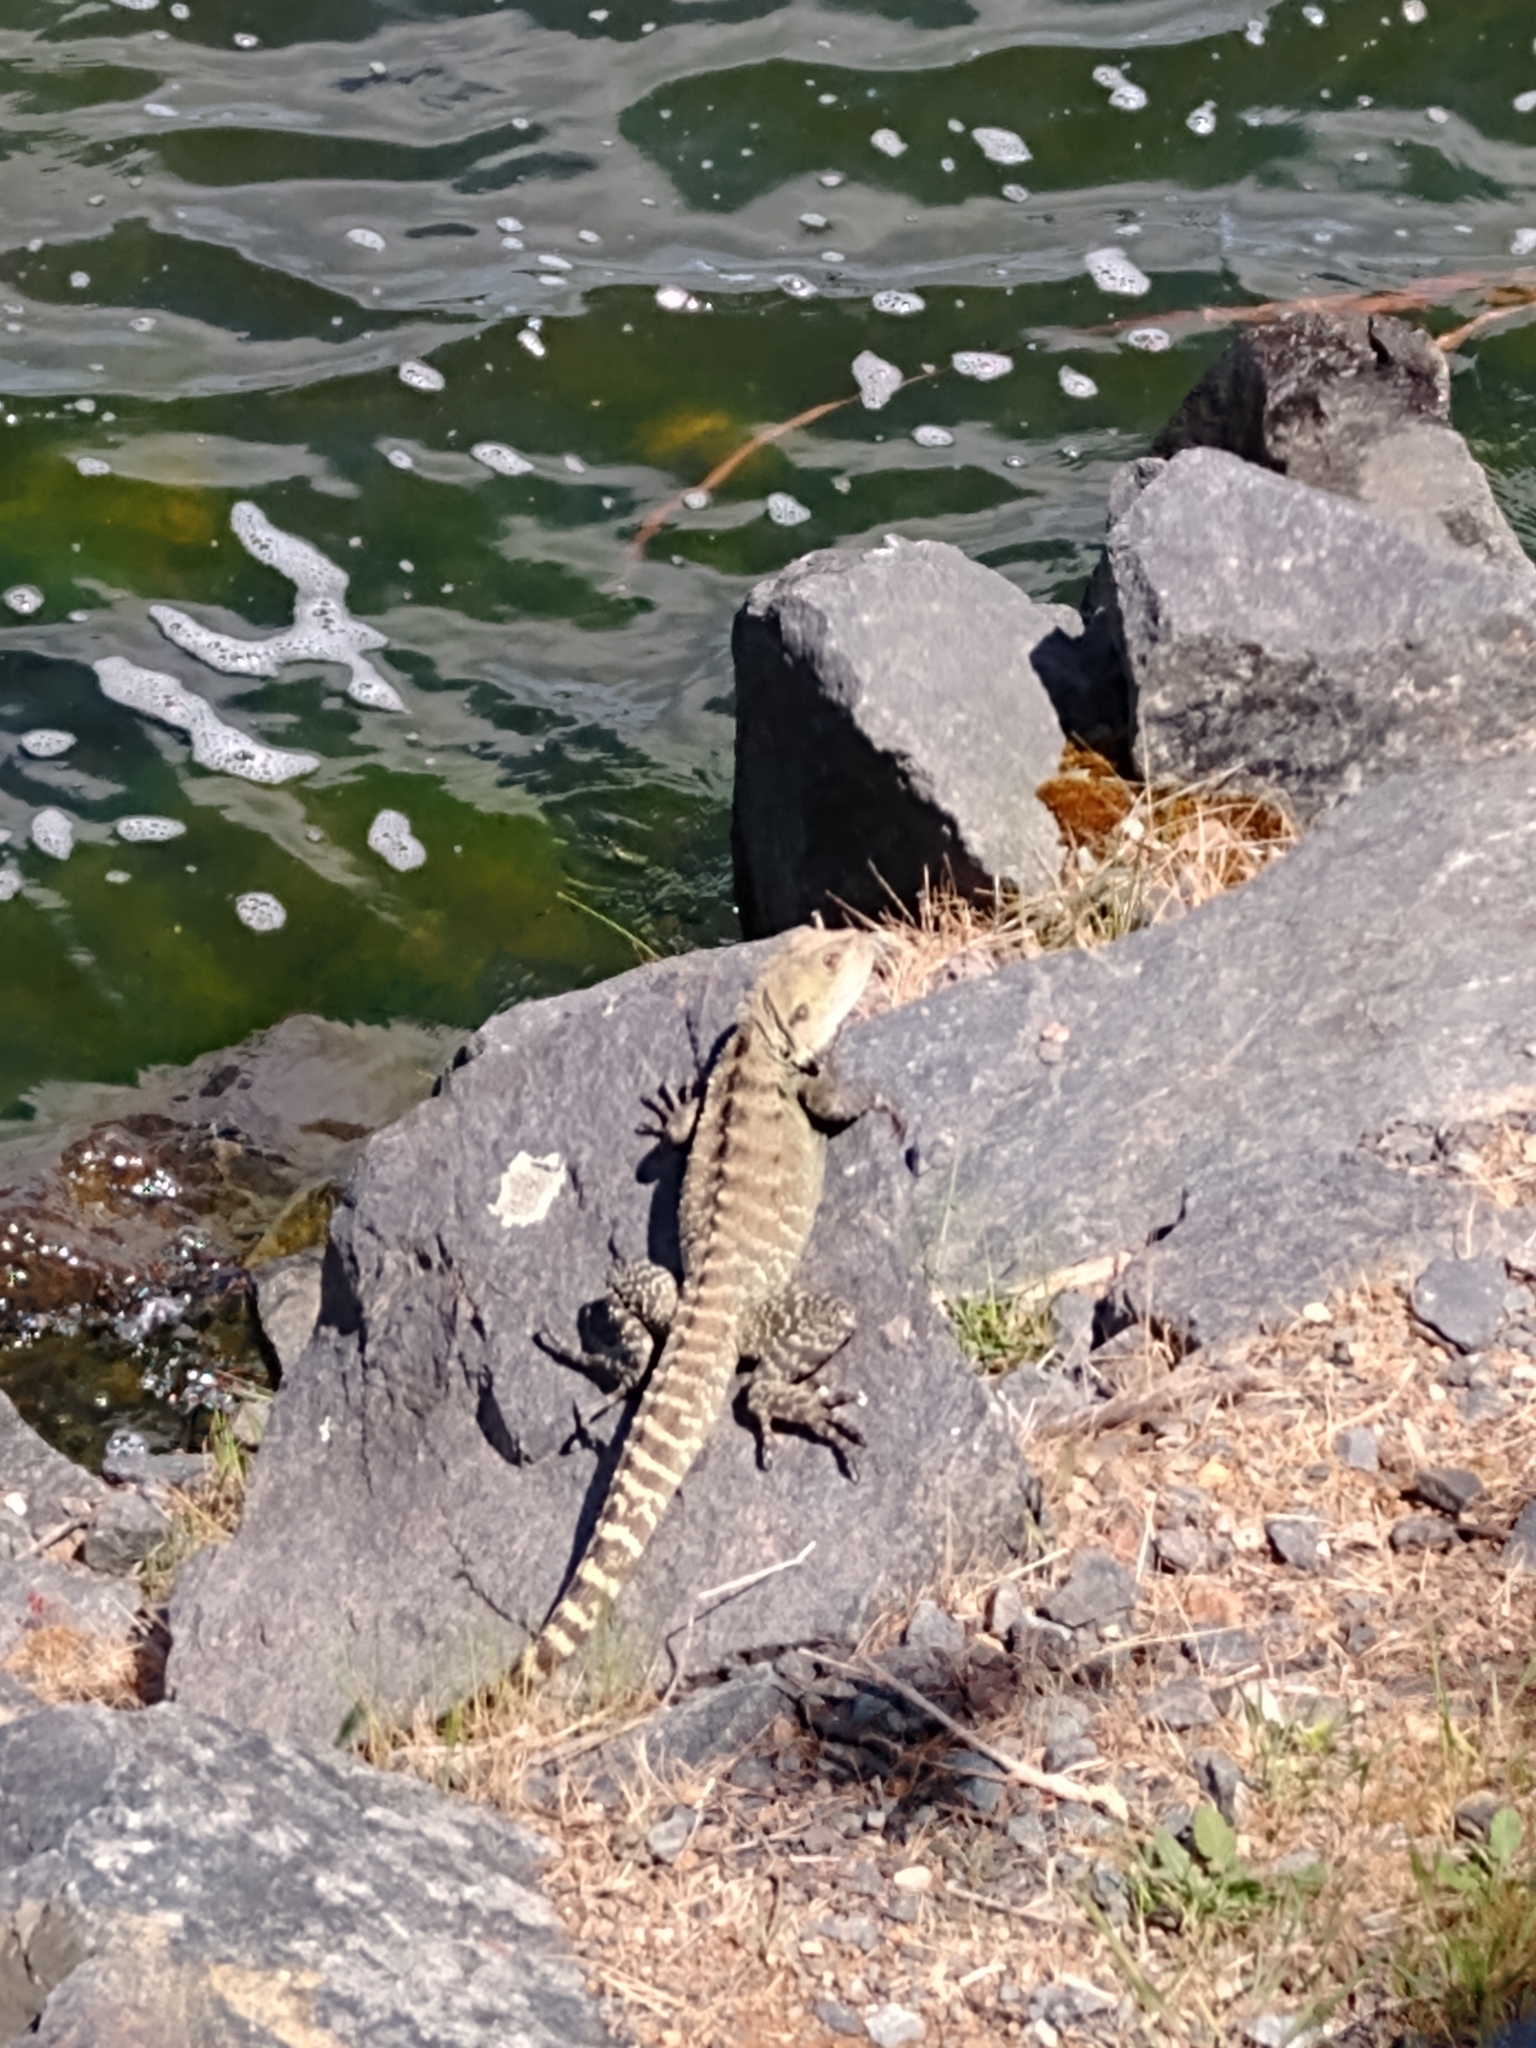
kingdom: Animalia
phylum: Chordata
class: Squamata
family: Agamidae
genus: Intellagama
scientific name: Intellagama lesueurii
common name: Eastern water dragon
